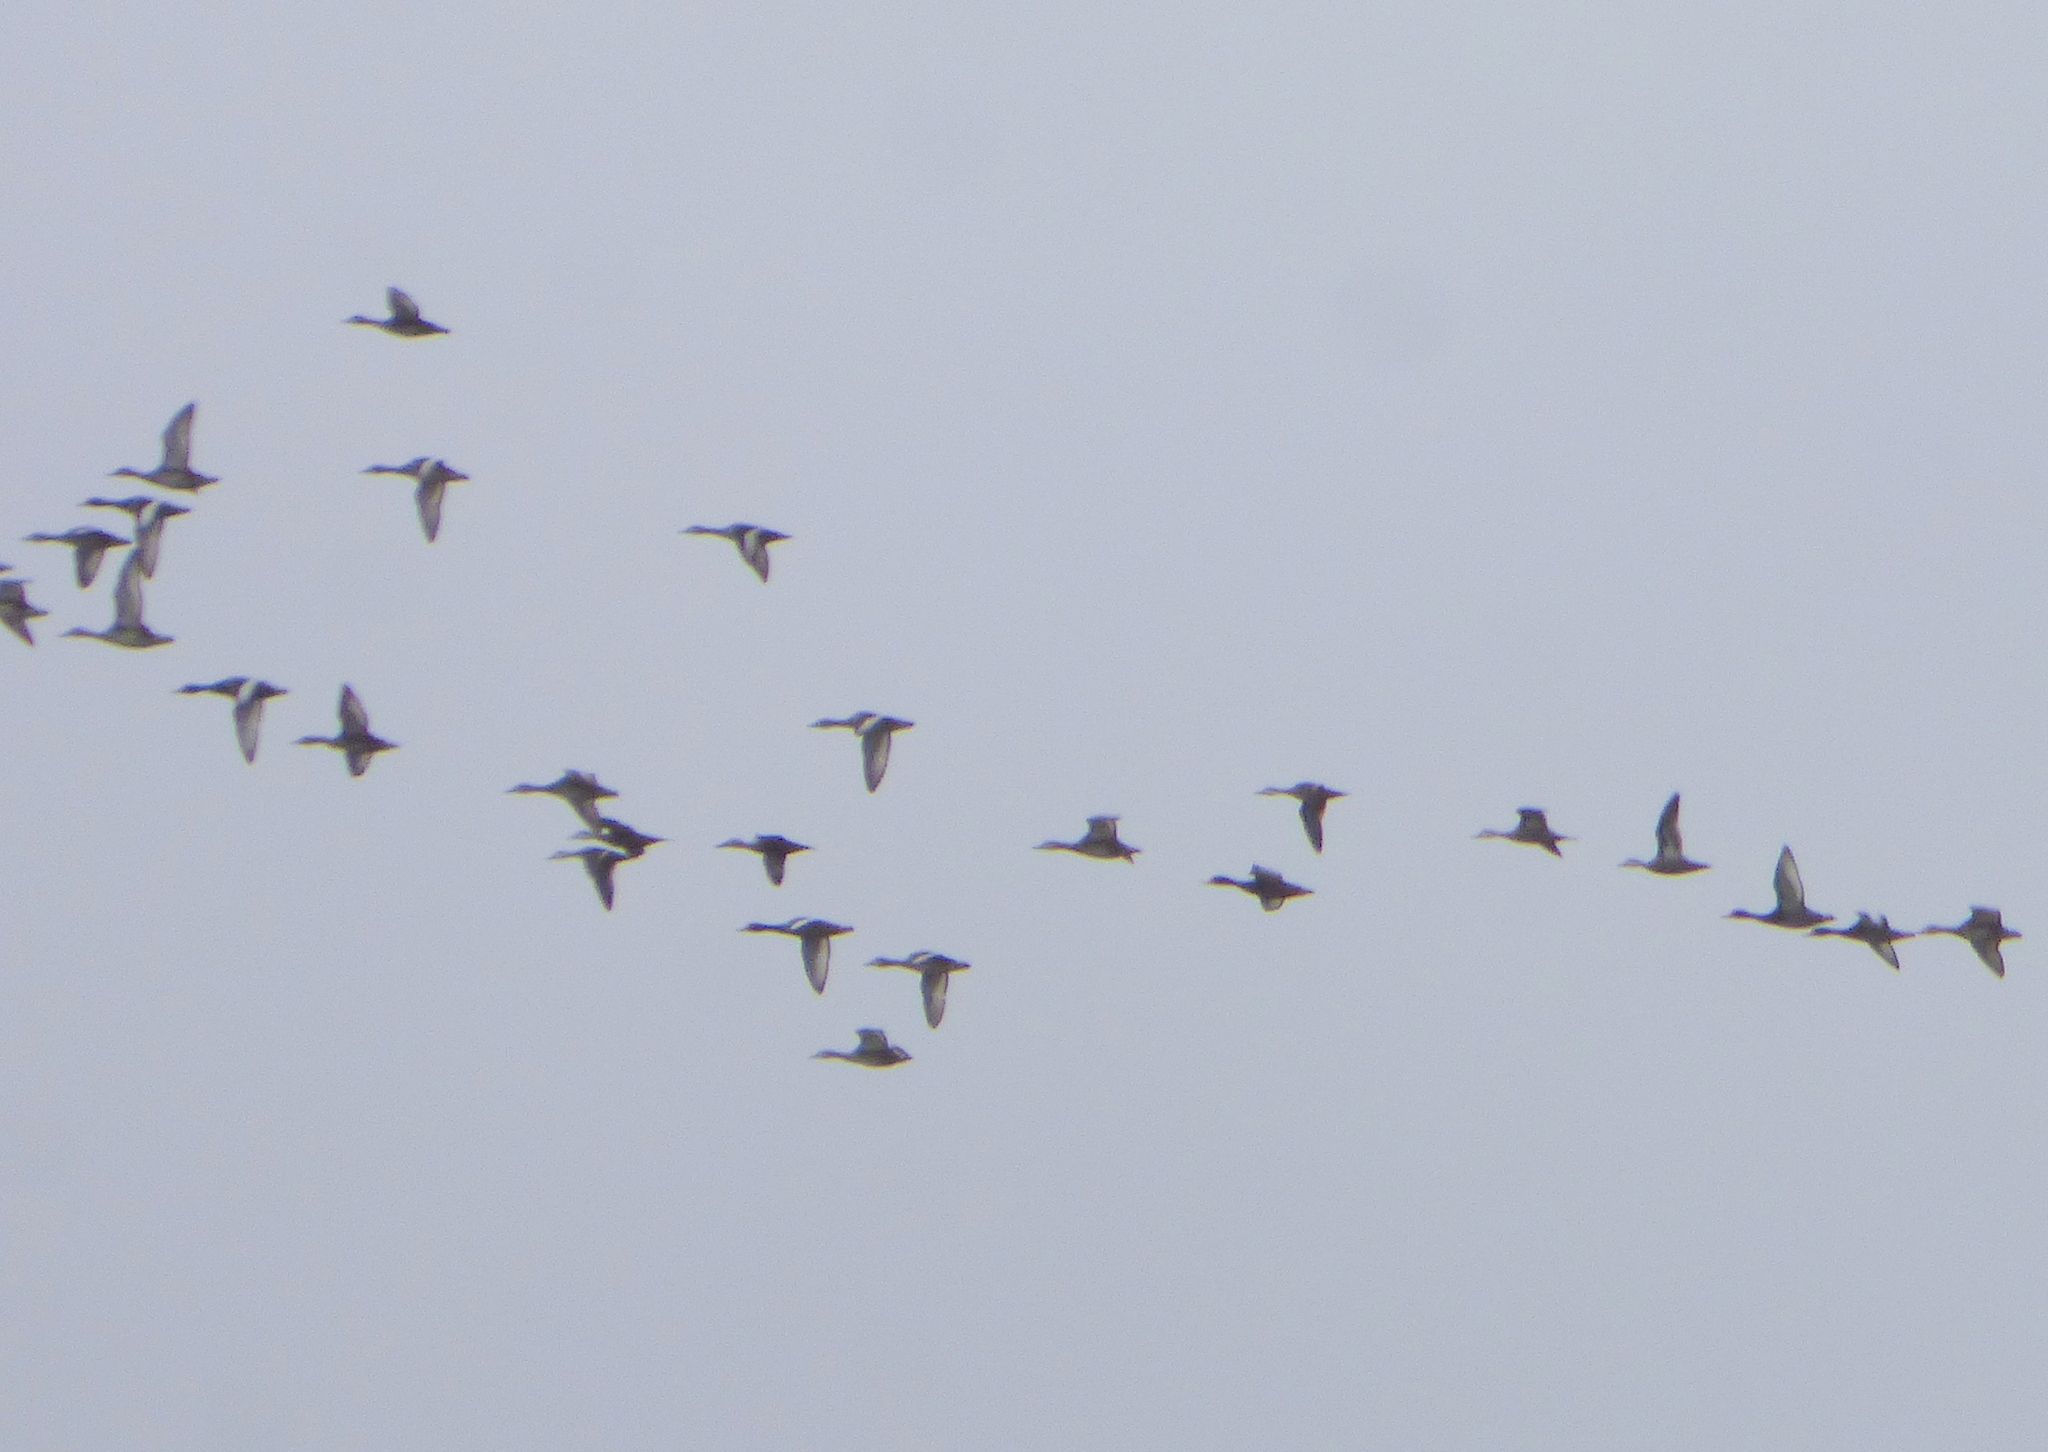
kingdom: Animalia
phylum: Chordata
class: Aves
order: Anseriformes
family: Anatidae
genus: Netta
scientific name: Netta peposaca
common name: Rosy-billed pochard
